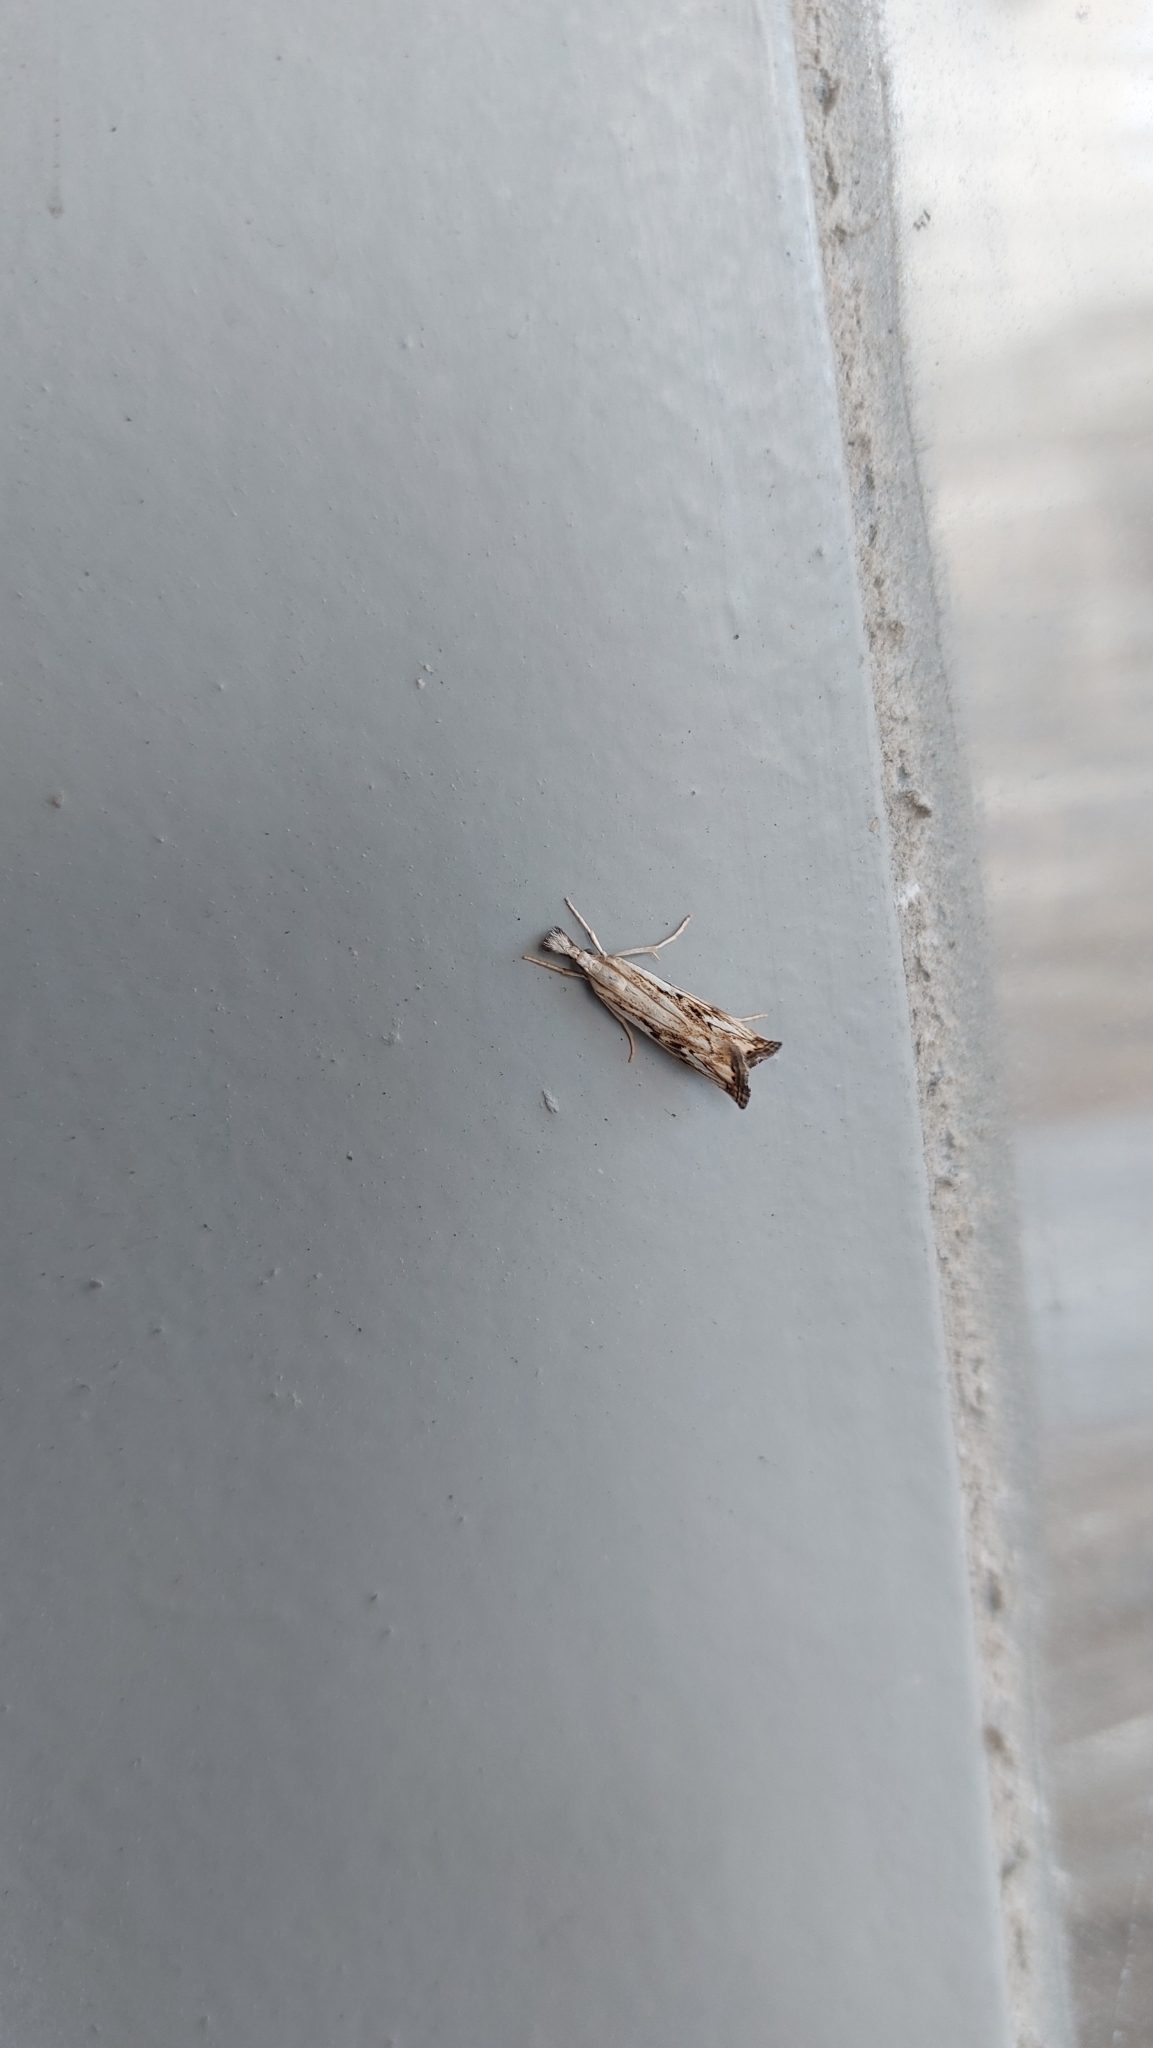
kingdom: Animalia
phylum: Arthropoda
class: Insecta
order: Lepidoptera
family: Crambidae
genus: Catoptria
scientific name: Catoptria falsella
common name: Chequered grass-veneer
